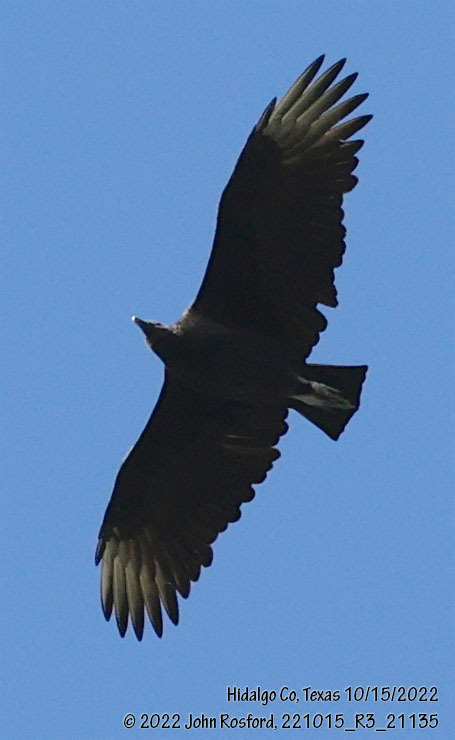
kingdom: Animalia
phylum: Chordata
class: Aves
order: Accipitriformes
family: Cathartidae
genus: Coragyps
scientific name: Coragyps atratus
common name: Black vulture
